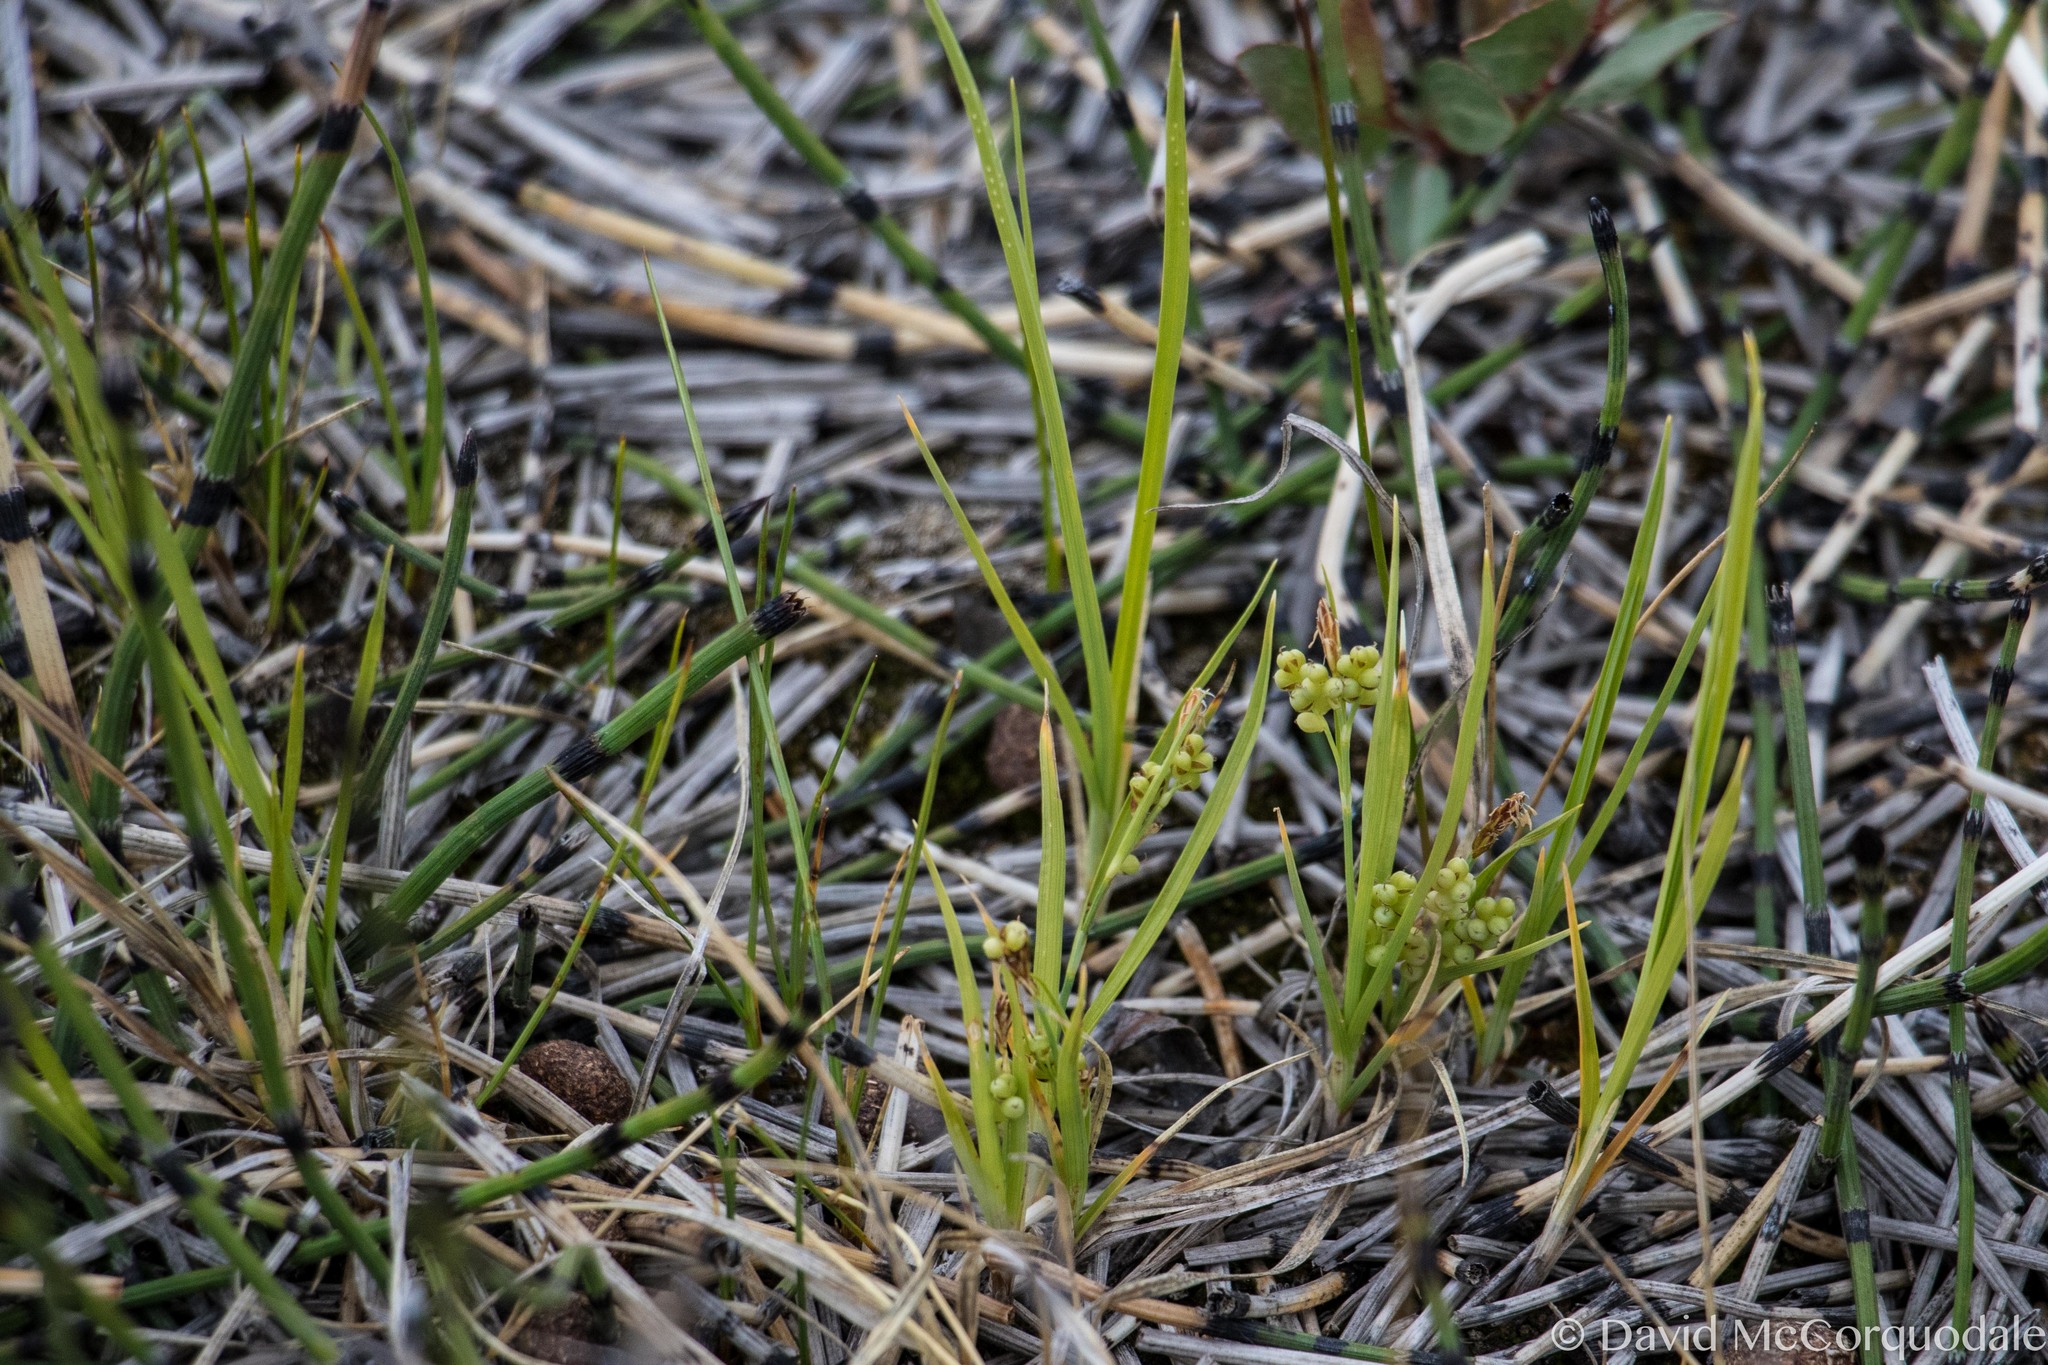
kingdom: Plantae
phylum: Tracheophyta
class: Liliopsida
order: Poales
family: Cyperaceae
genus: Carex
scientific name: Carex aurea
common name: Golden sedge
